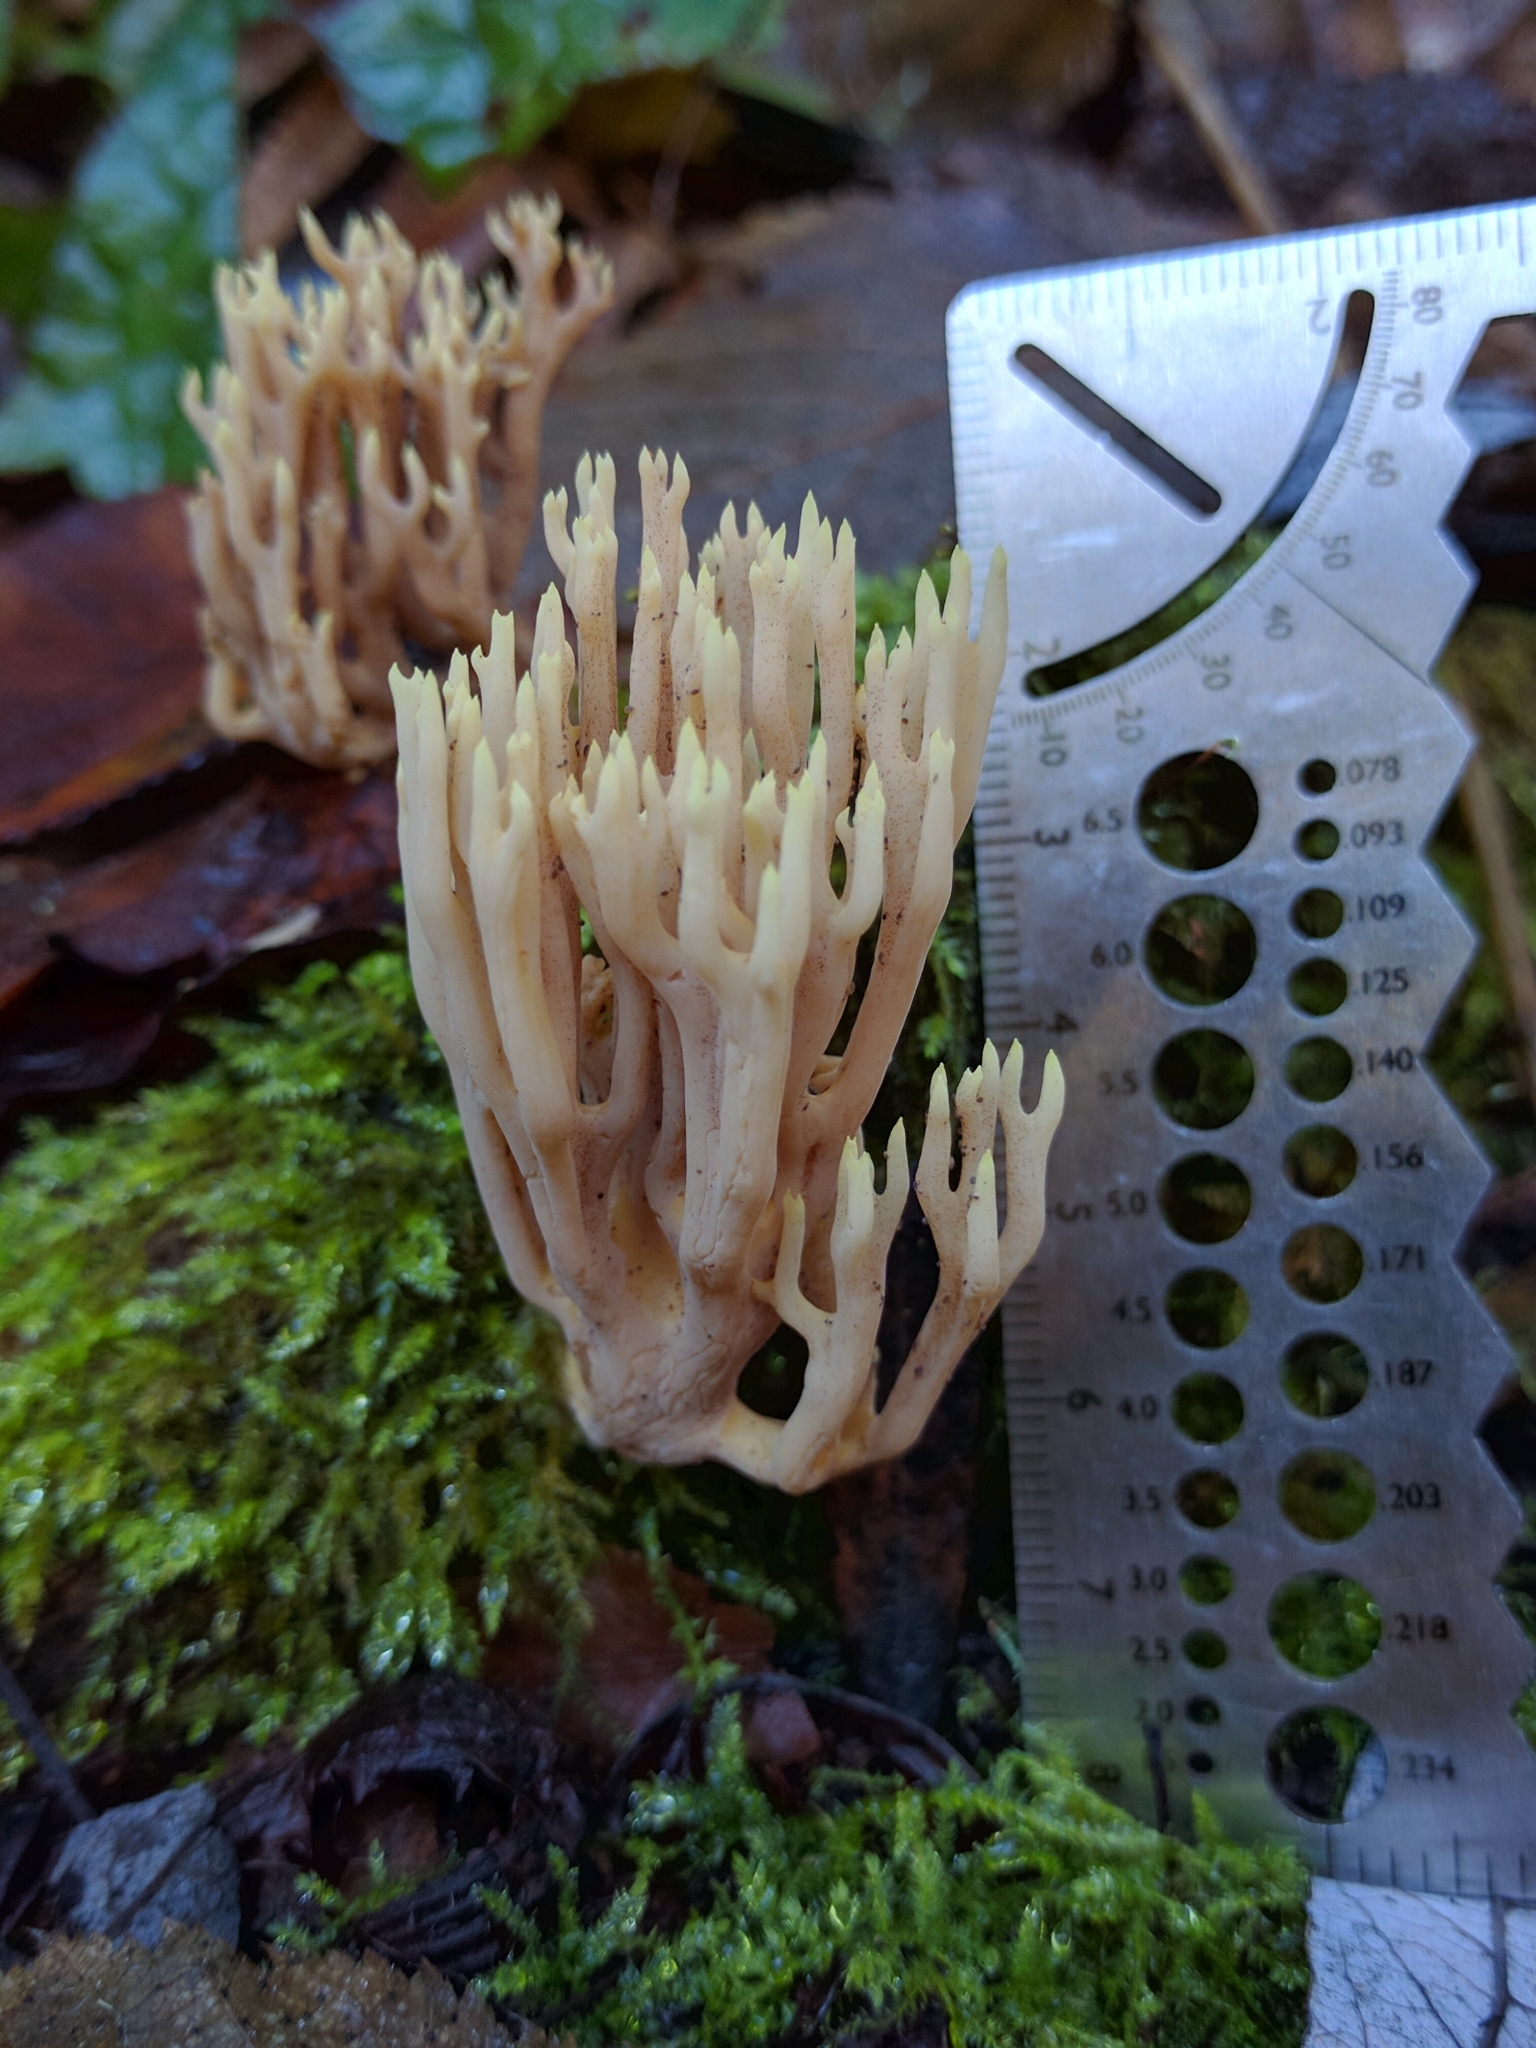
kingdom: Fungi
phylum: Basidiomycota
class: Agaricomycetes
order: Gomphales
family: Gomphaceae
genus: Ramaria
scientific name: Ramaria stricta
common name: Upright coral
